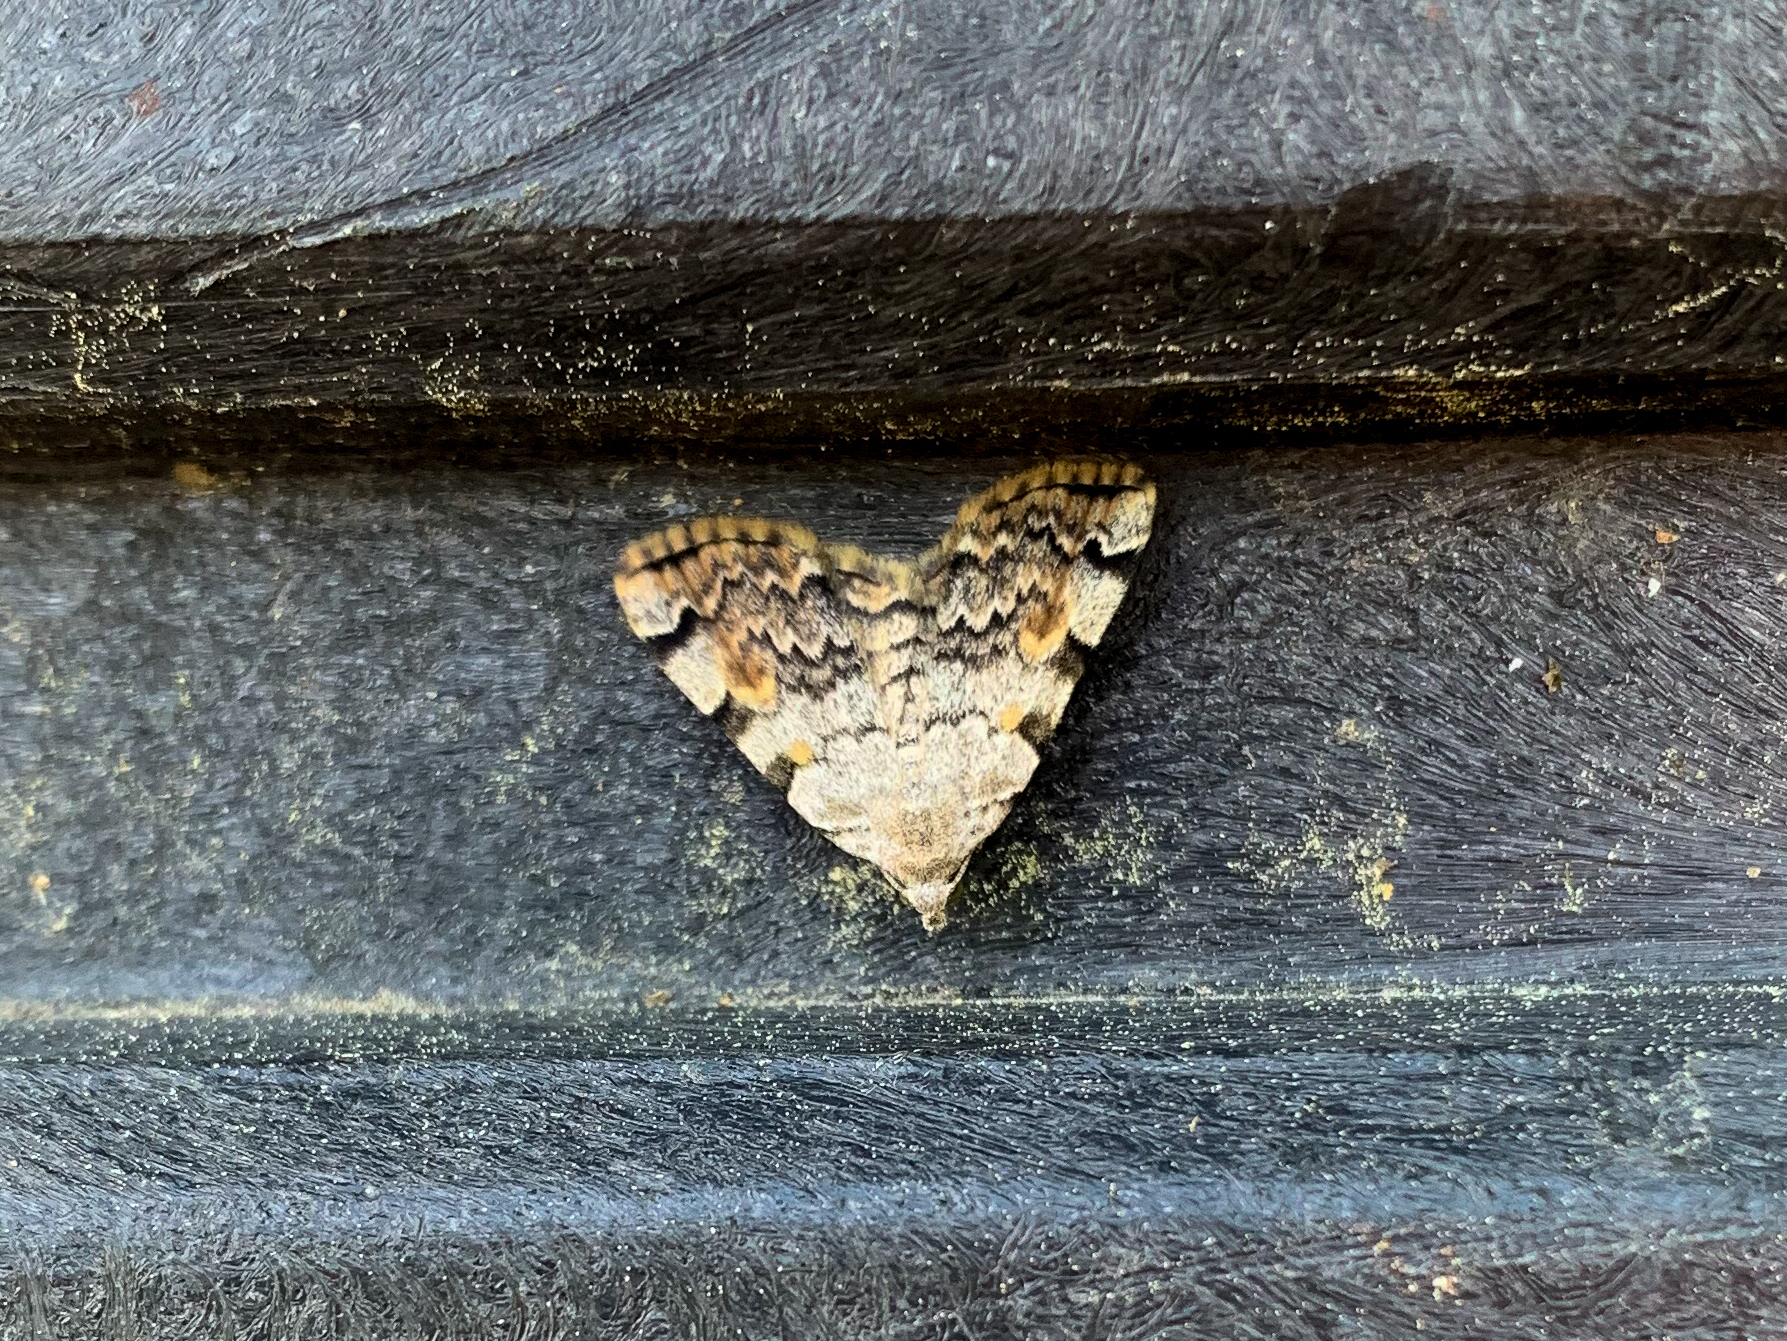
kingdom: Animalia
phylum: Arthropoda
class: Insecta
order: Lepidoptera
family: Erebidae
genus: Idia
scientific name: Idia americalis
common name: American idia moth
